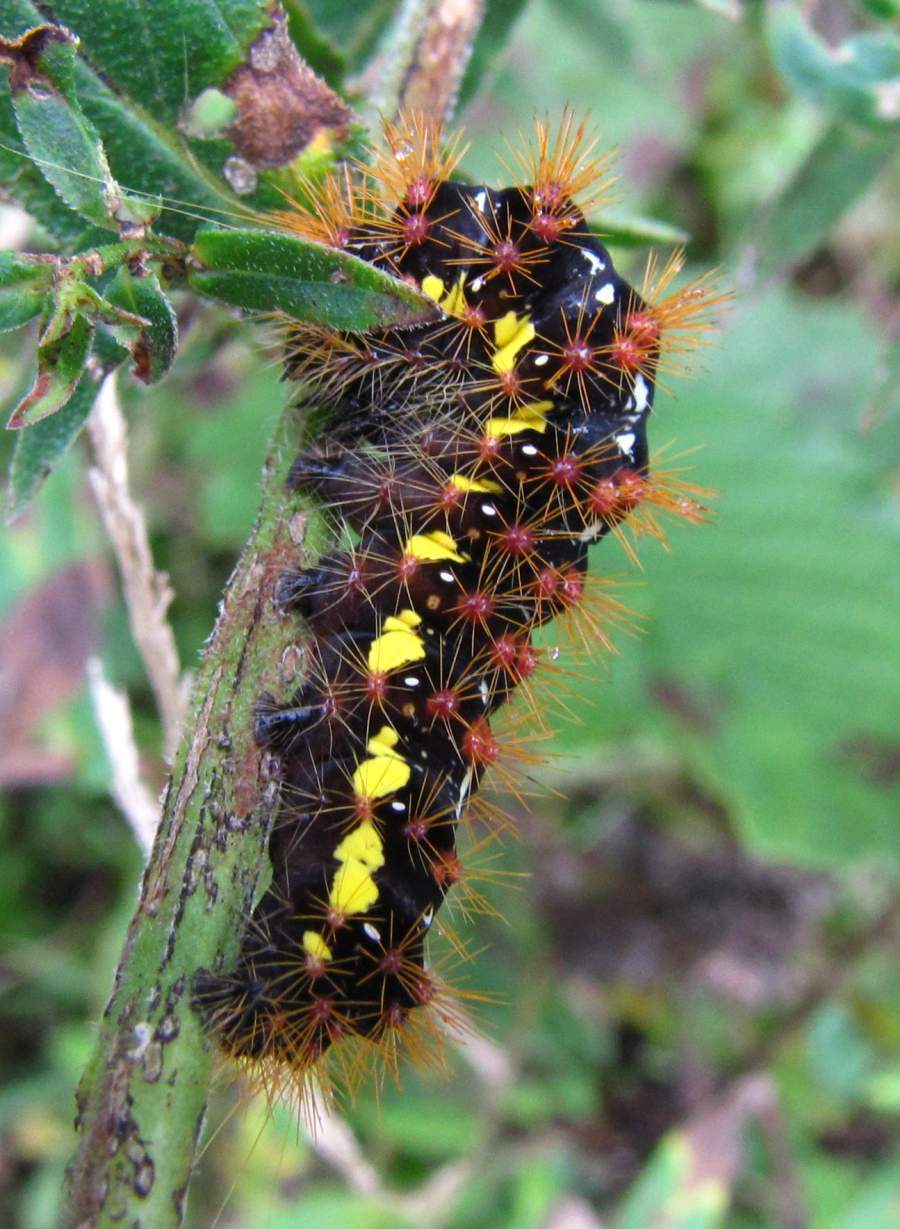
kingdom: Animalia
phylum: Arthropoda
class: Insecta
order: Lepidoptera
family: Noctuidae
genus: Acronicta
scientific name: Acronicta oblinita
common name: Smeared dagger
